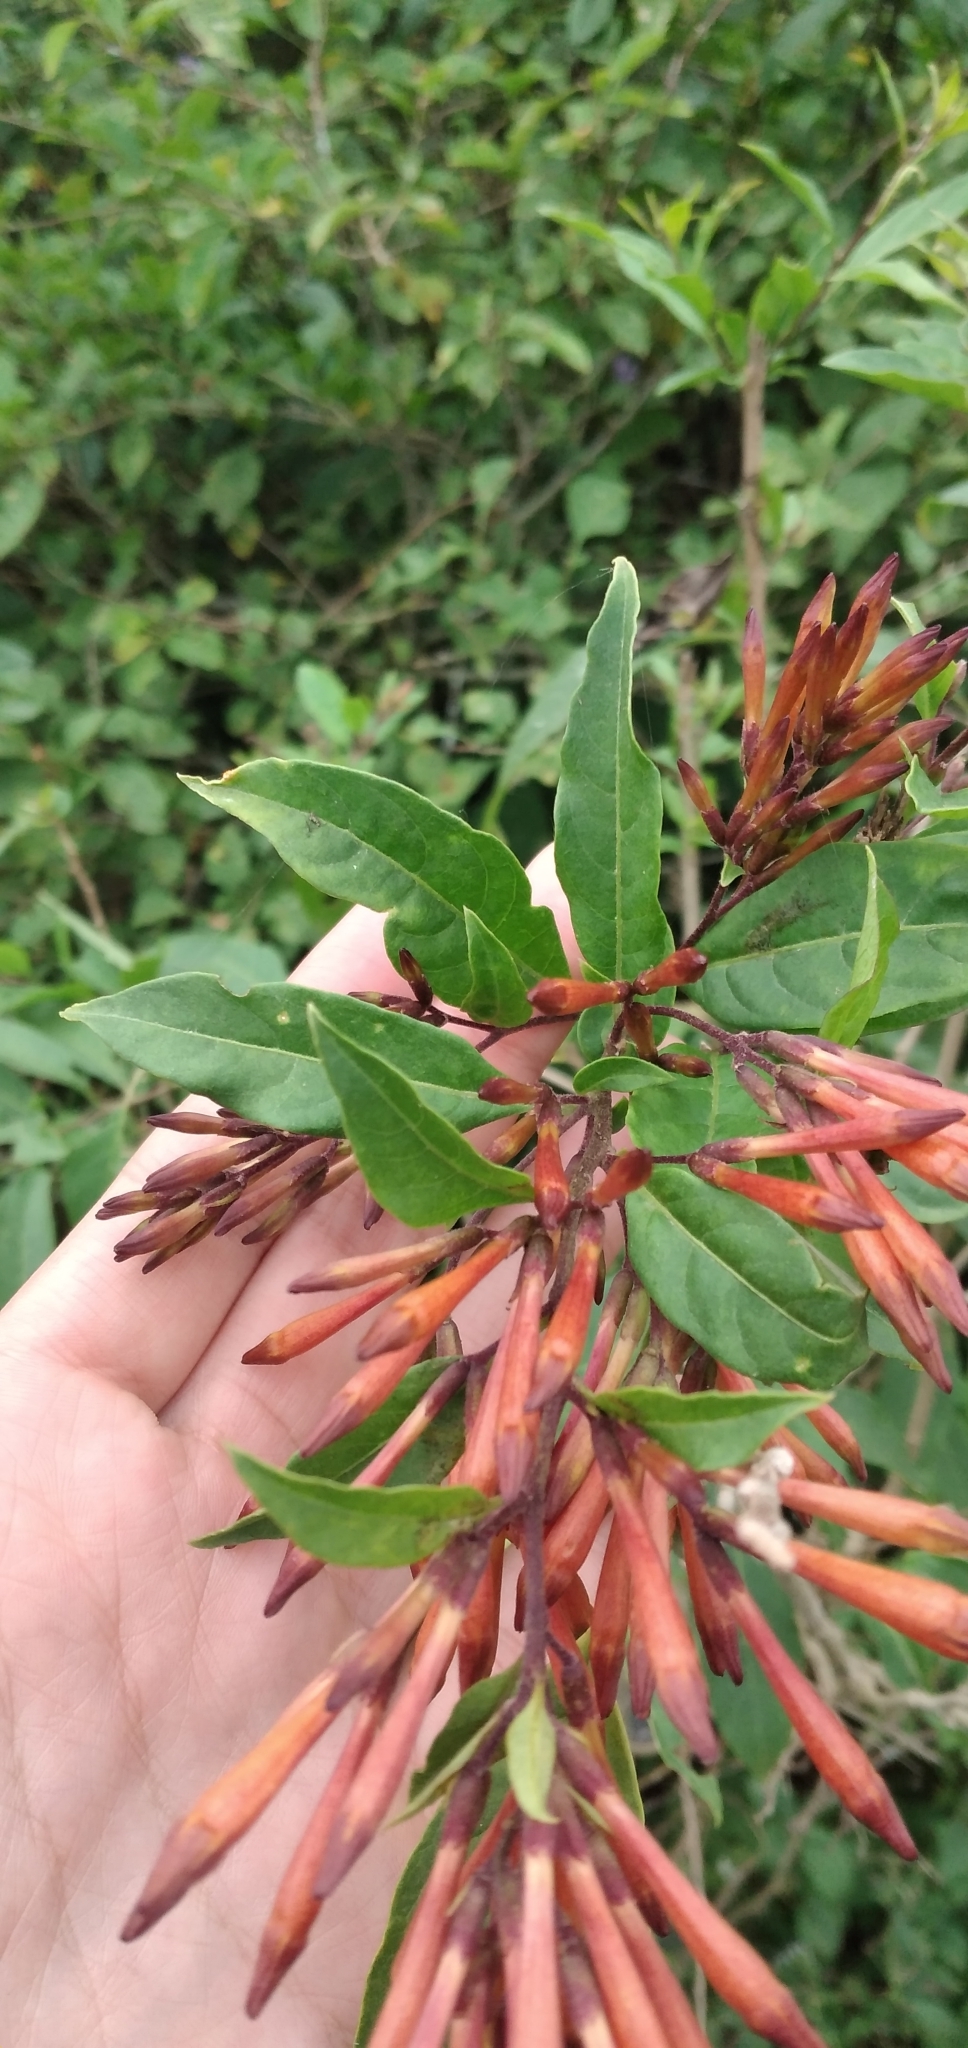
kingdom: Plantae
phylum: Tracheophyta
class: Magnoliopsida
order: Solanales
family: Solanaceae
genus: Cestrum
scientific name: Cestrum parqui
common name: Chilean cestrum
